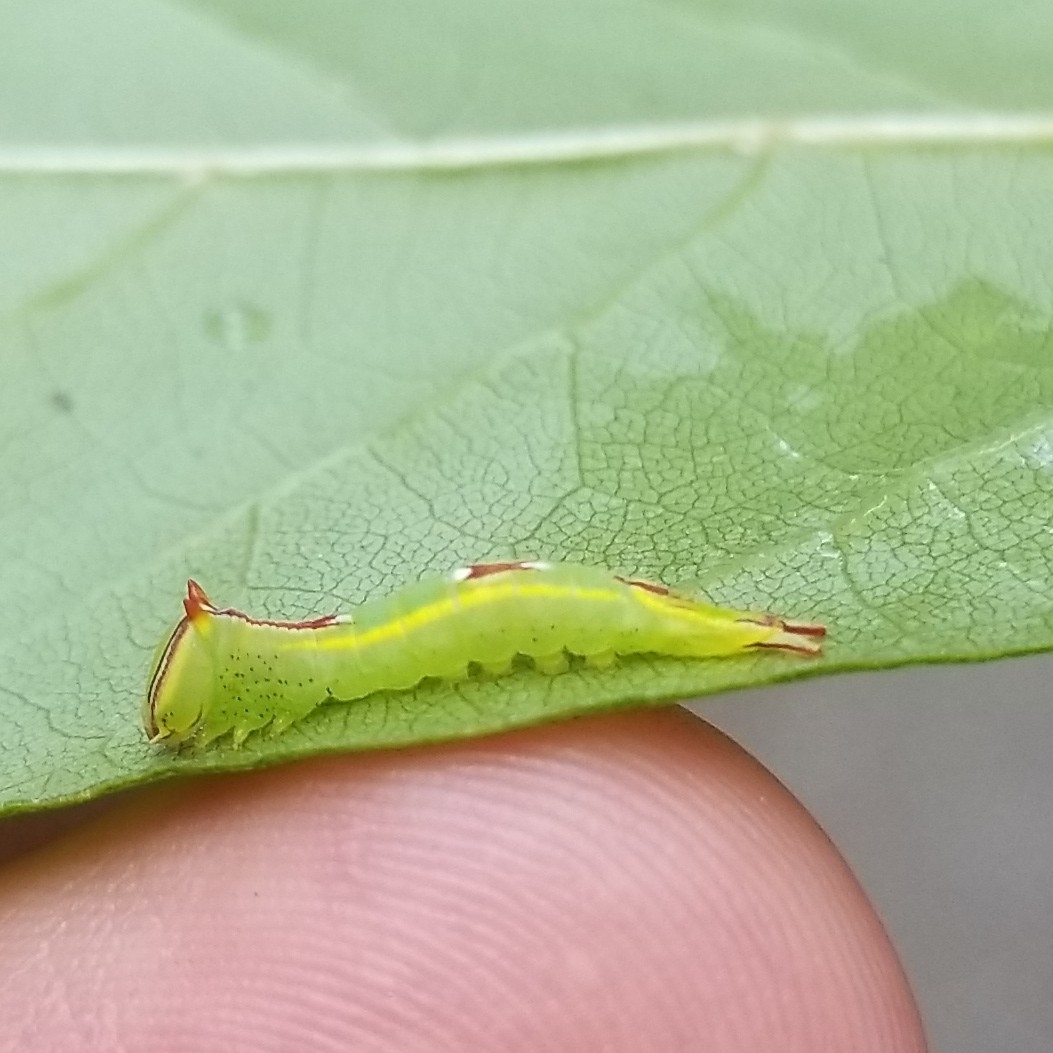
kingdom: Animalia
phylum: Arthropoda
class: Insecta
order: Lepidoptera
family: Notodontidae
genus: Disphragis
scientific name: Disphragis Cecrita guttivitta
